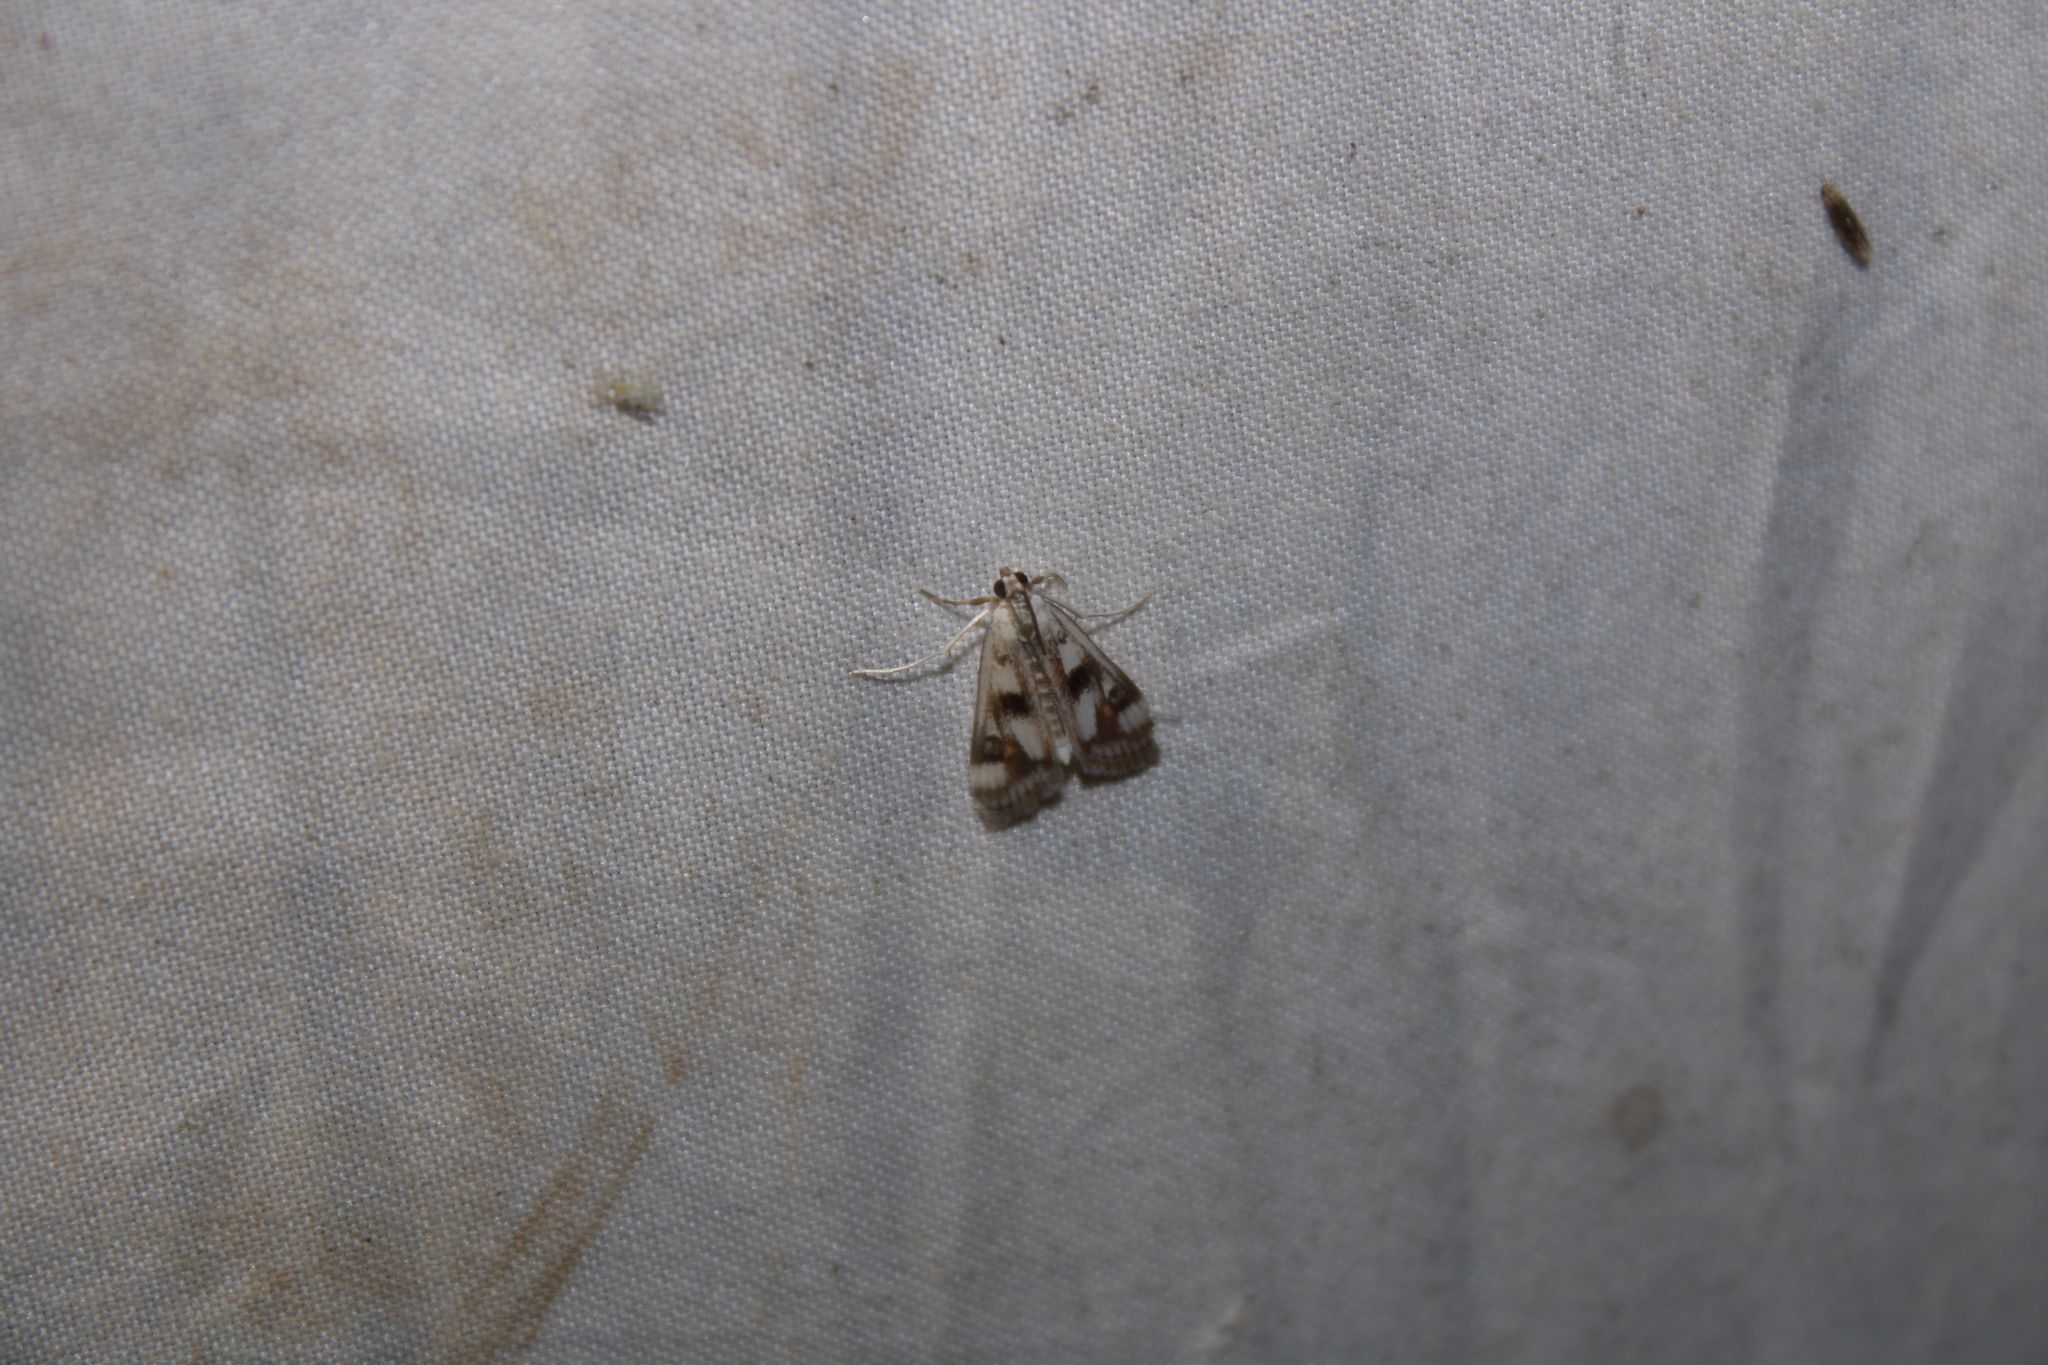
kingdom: Animalia
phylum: Arthropoda
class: Insecta
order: Lepidoptera
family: Crambidae
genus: Parapoynx
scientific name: Parapoynx maculalis
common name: Polymorphic pondweed moth
